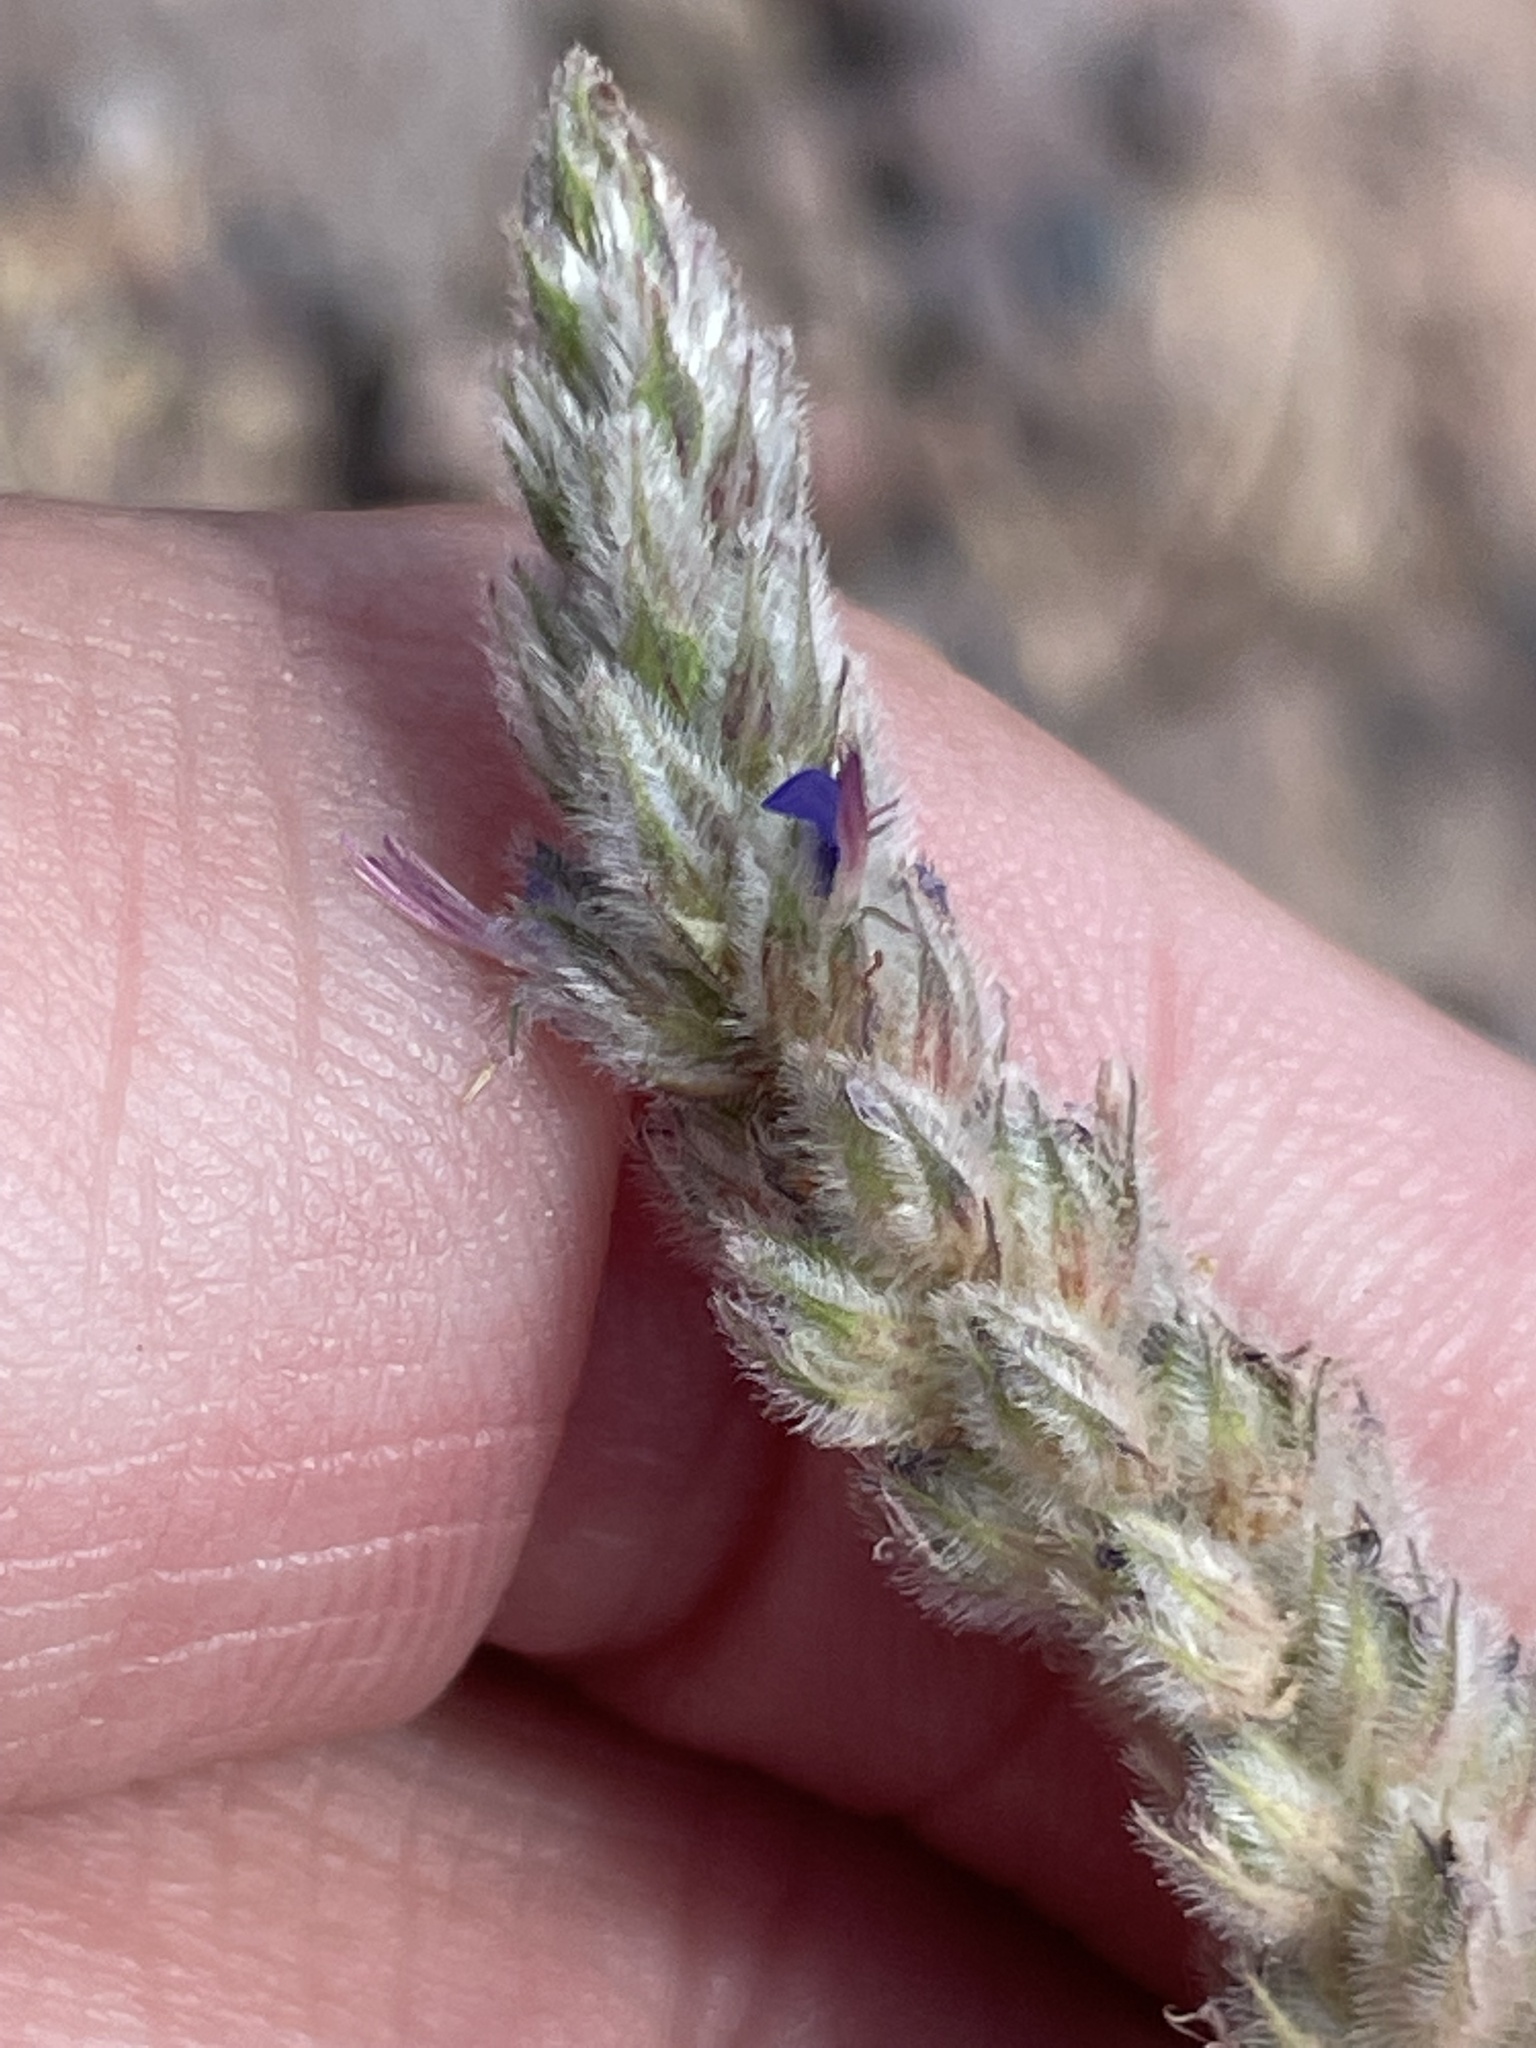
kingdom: Plantae
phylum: Tracheophyta
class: Magnoliopsida
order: Fabales
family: Fabaceae
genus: Marina
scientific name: Marina vetula
